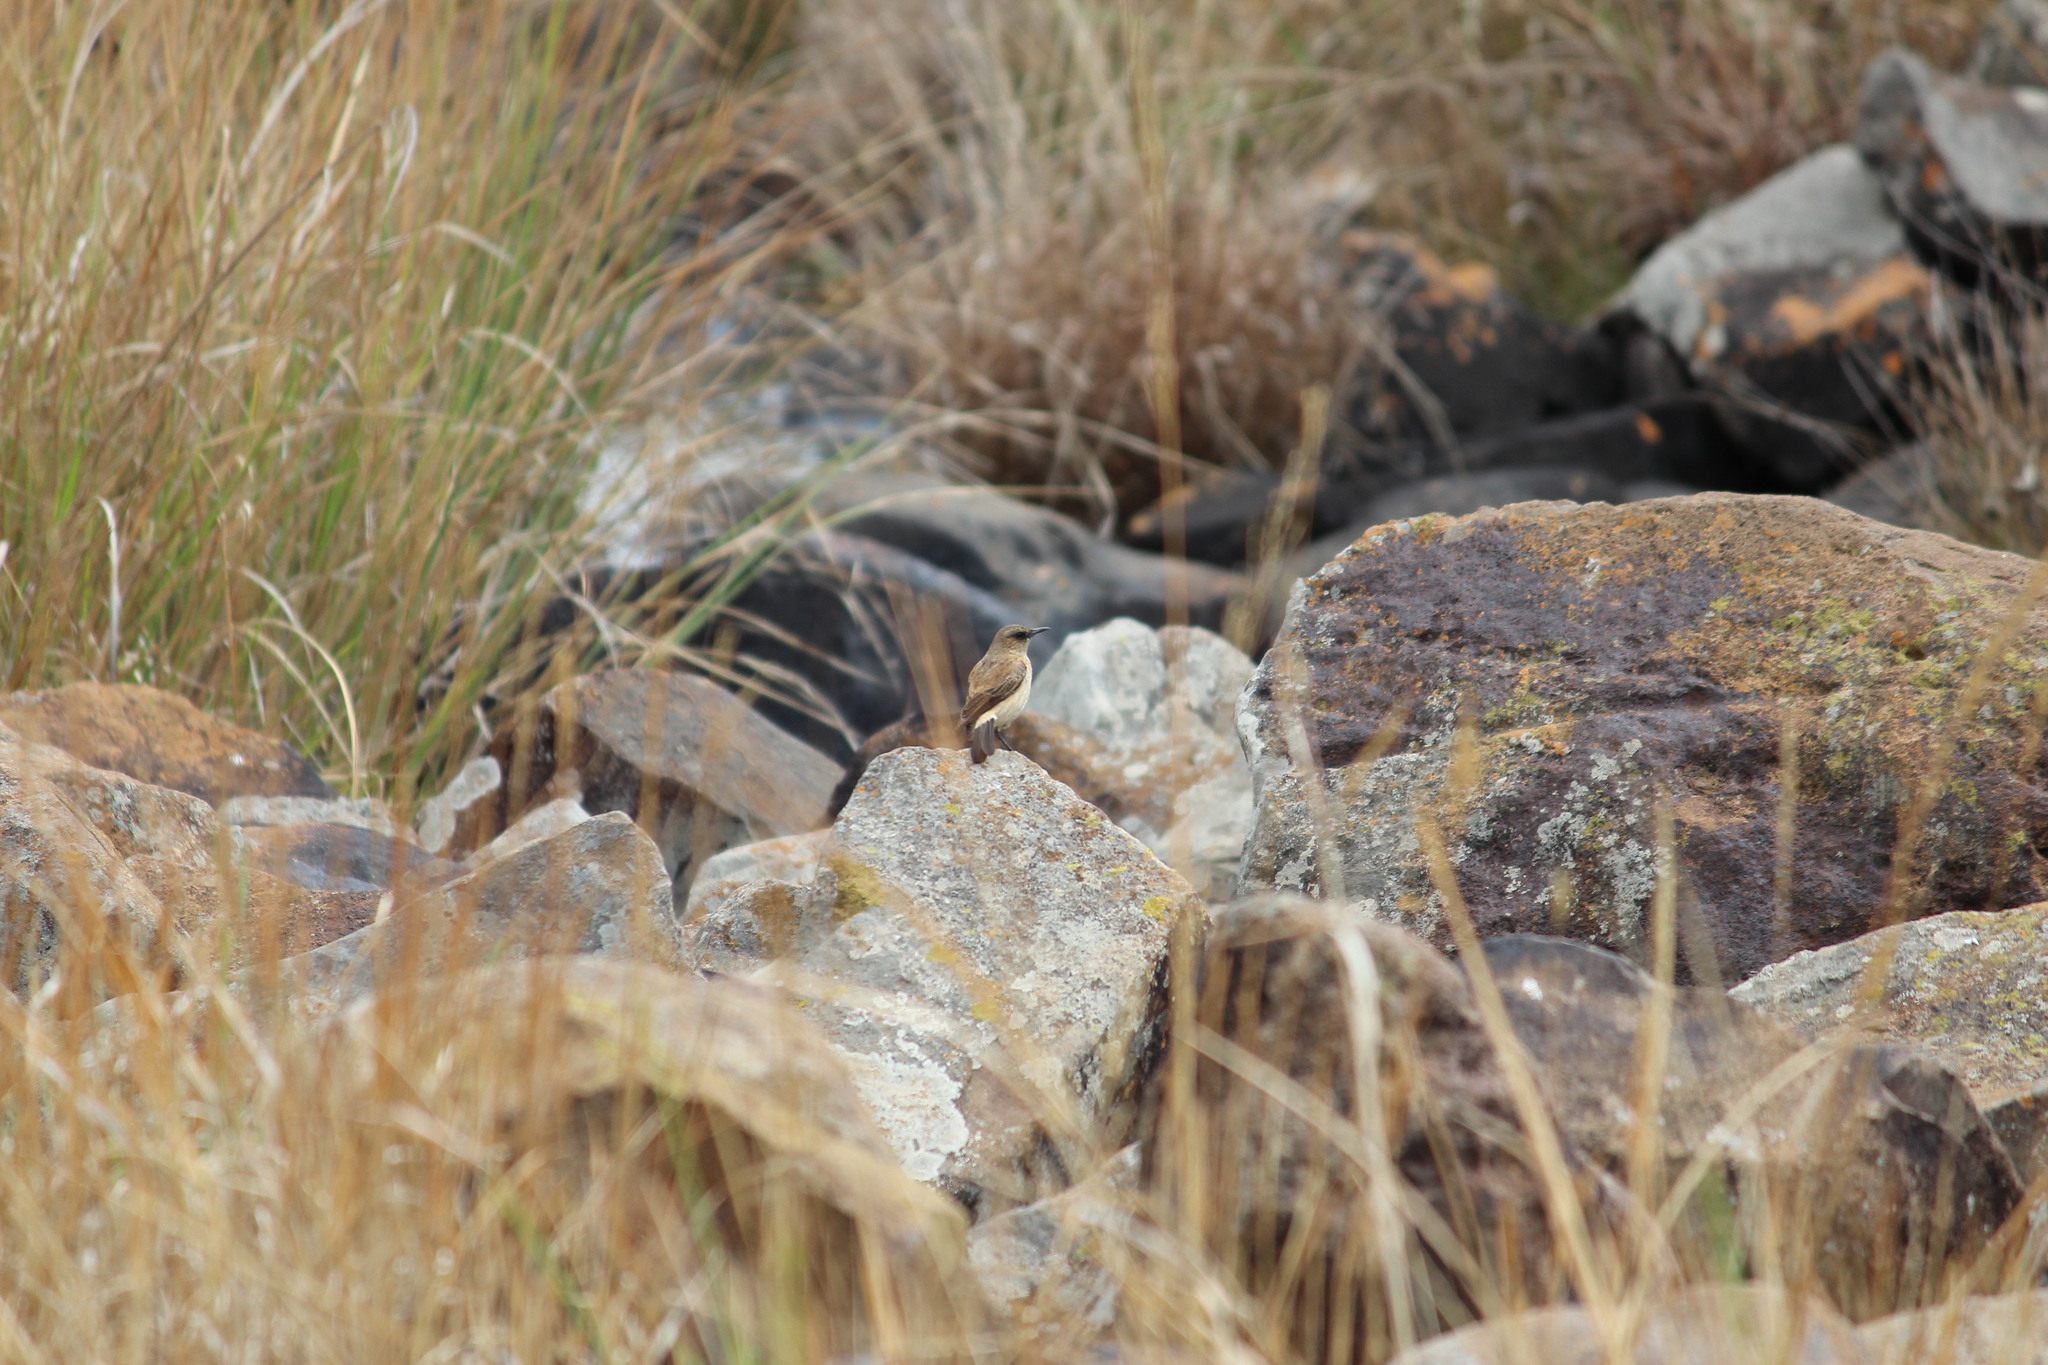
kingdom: Animalia
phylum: Chordata
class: Aves
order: Passeriformes
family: Muscicapidae
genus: Campicoloides
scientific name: Campicoloides bifasciatus
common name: Buff-streaked chat
